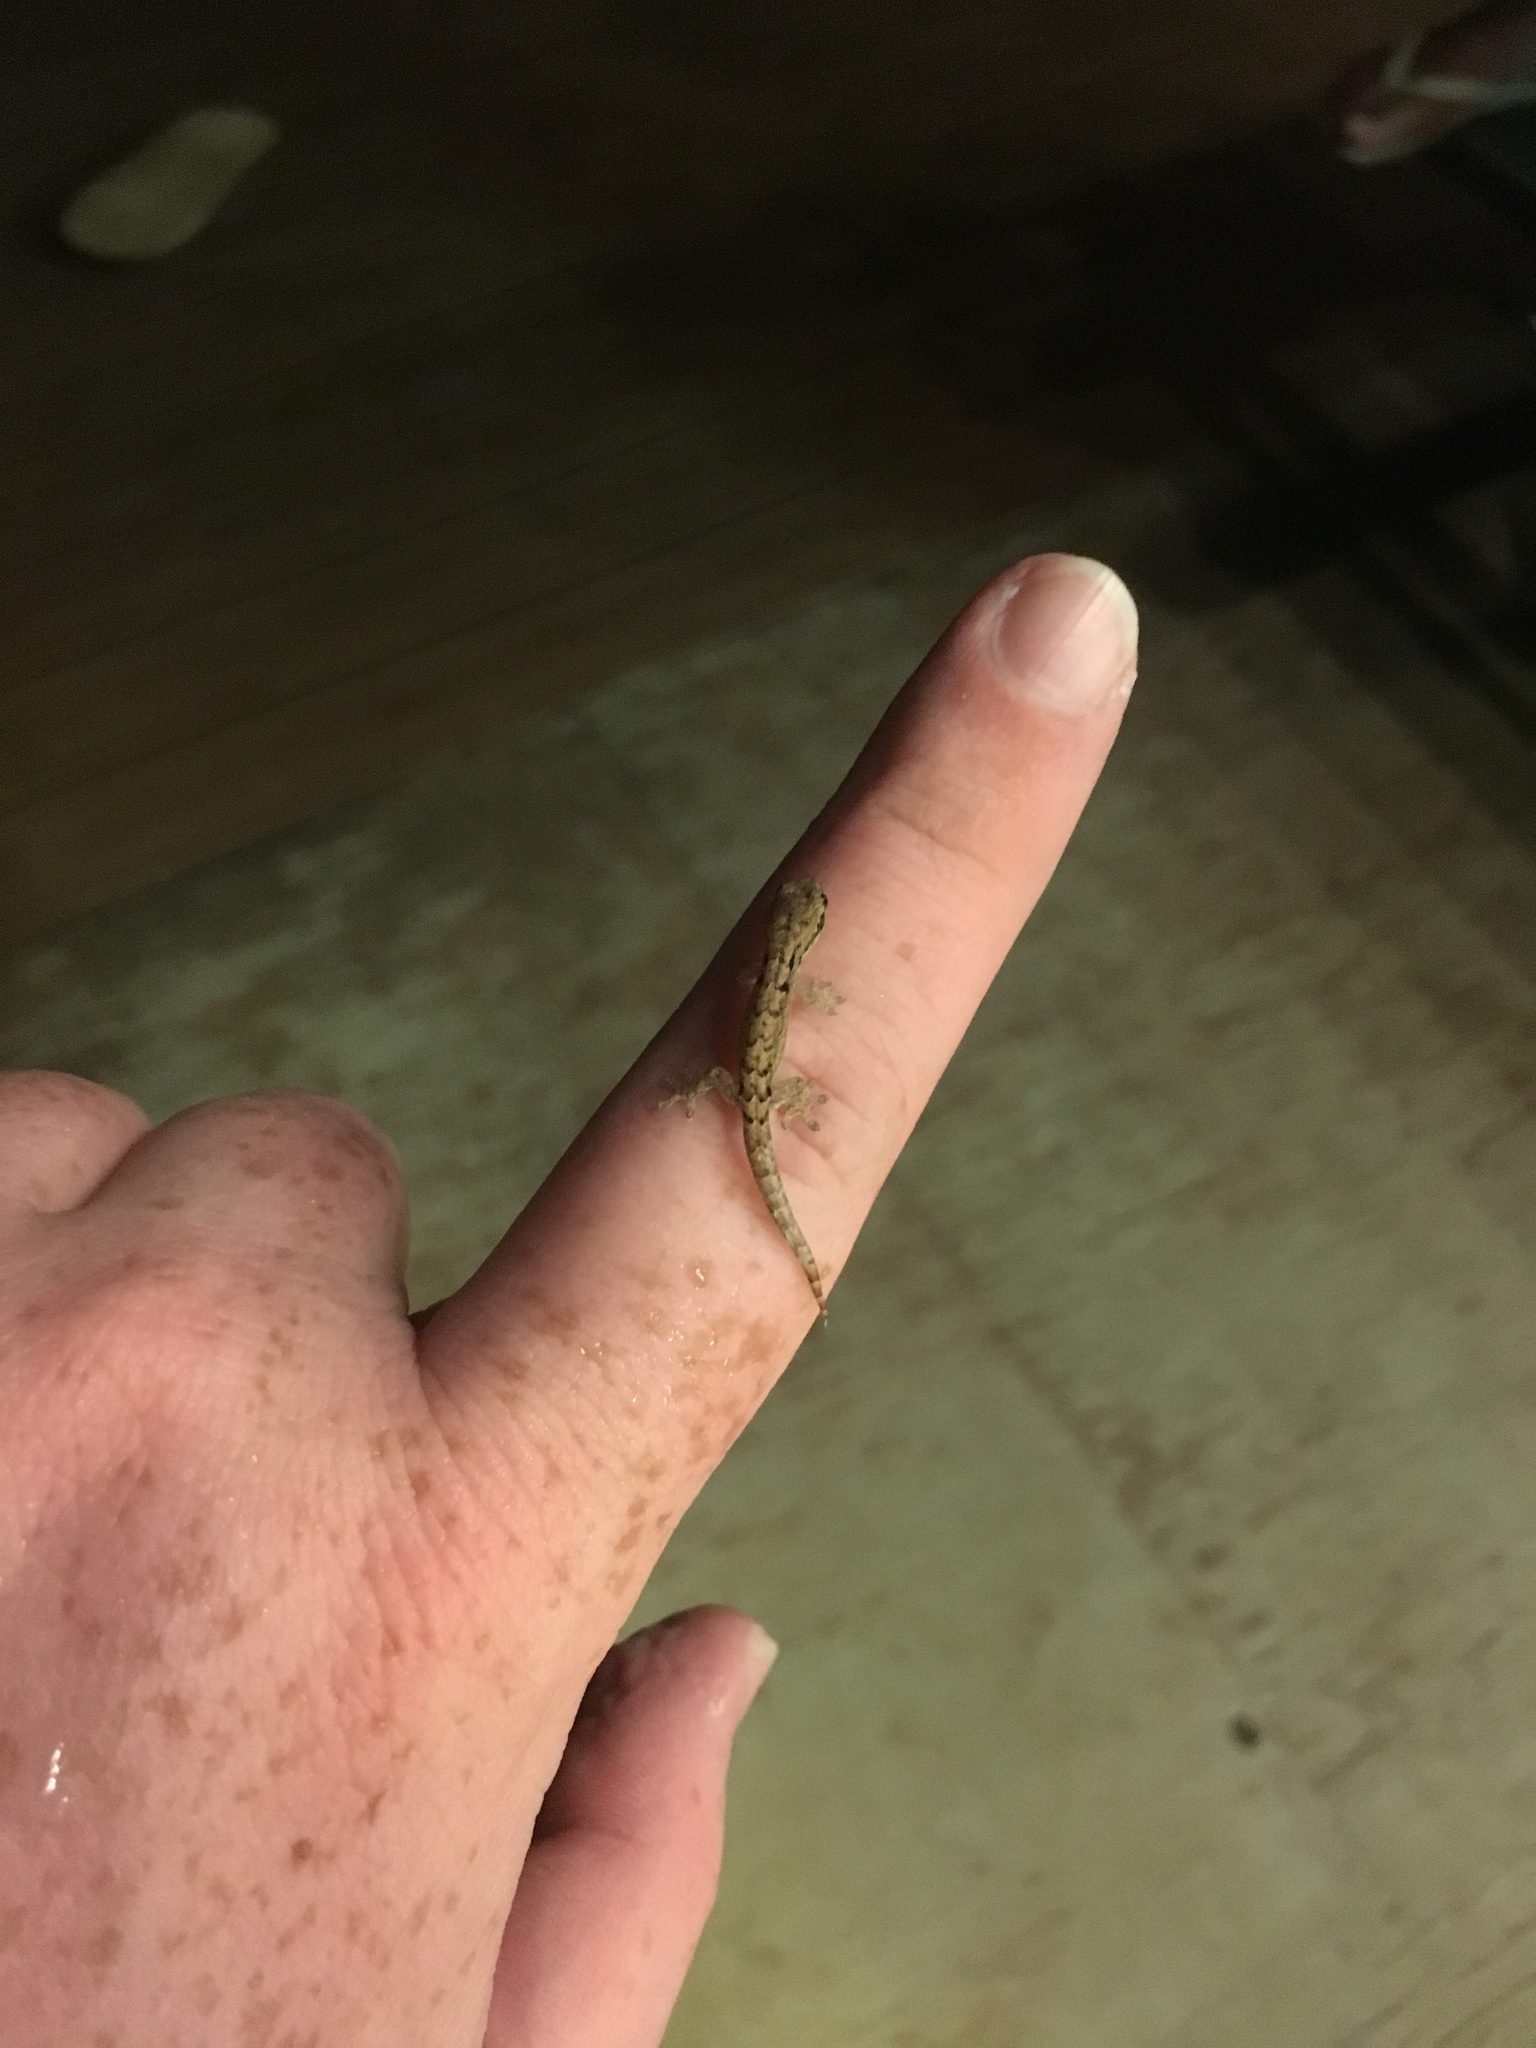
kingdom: Animalia
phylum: Chordata
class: Squamata
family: Gekkonidae
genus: Lepidodactylus
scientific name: Lepidodactylus lugubris
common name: Mourning gecko
